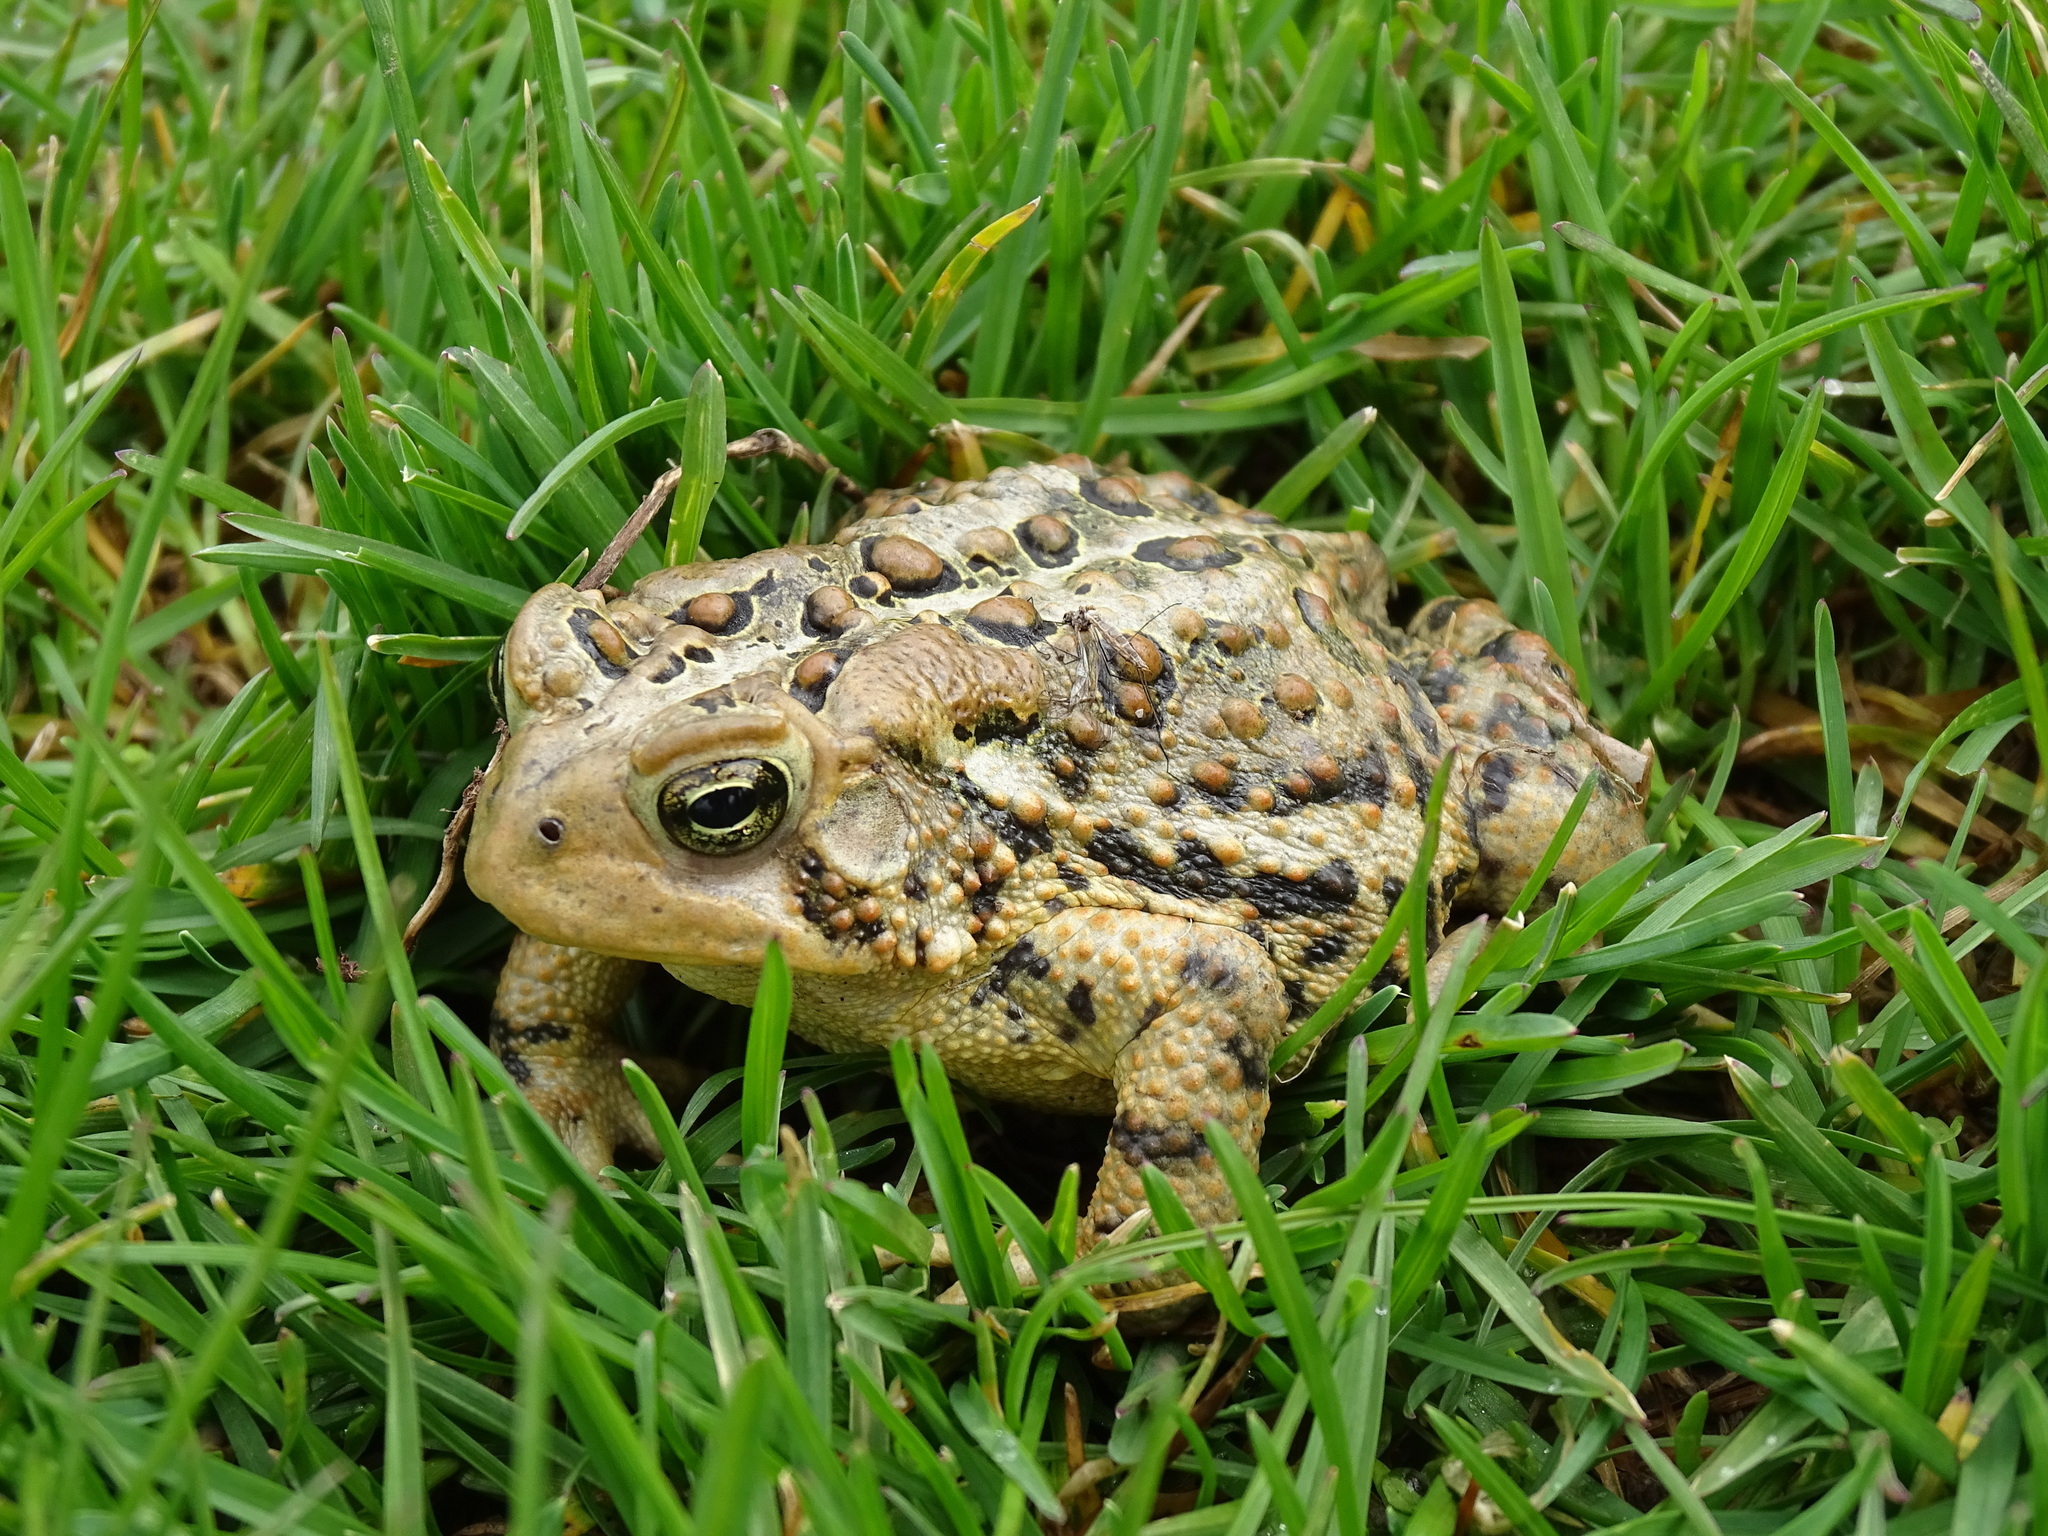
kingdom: Animalia
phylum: Chordata
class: Amphibia
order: Anura
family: Bufonidae
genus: Anaxyrus
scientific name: Anaxyrus americanus
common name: American toad
